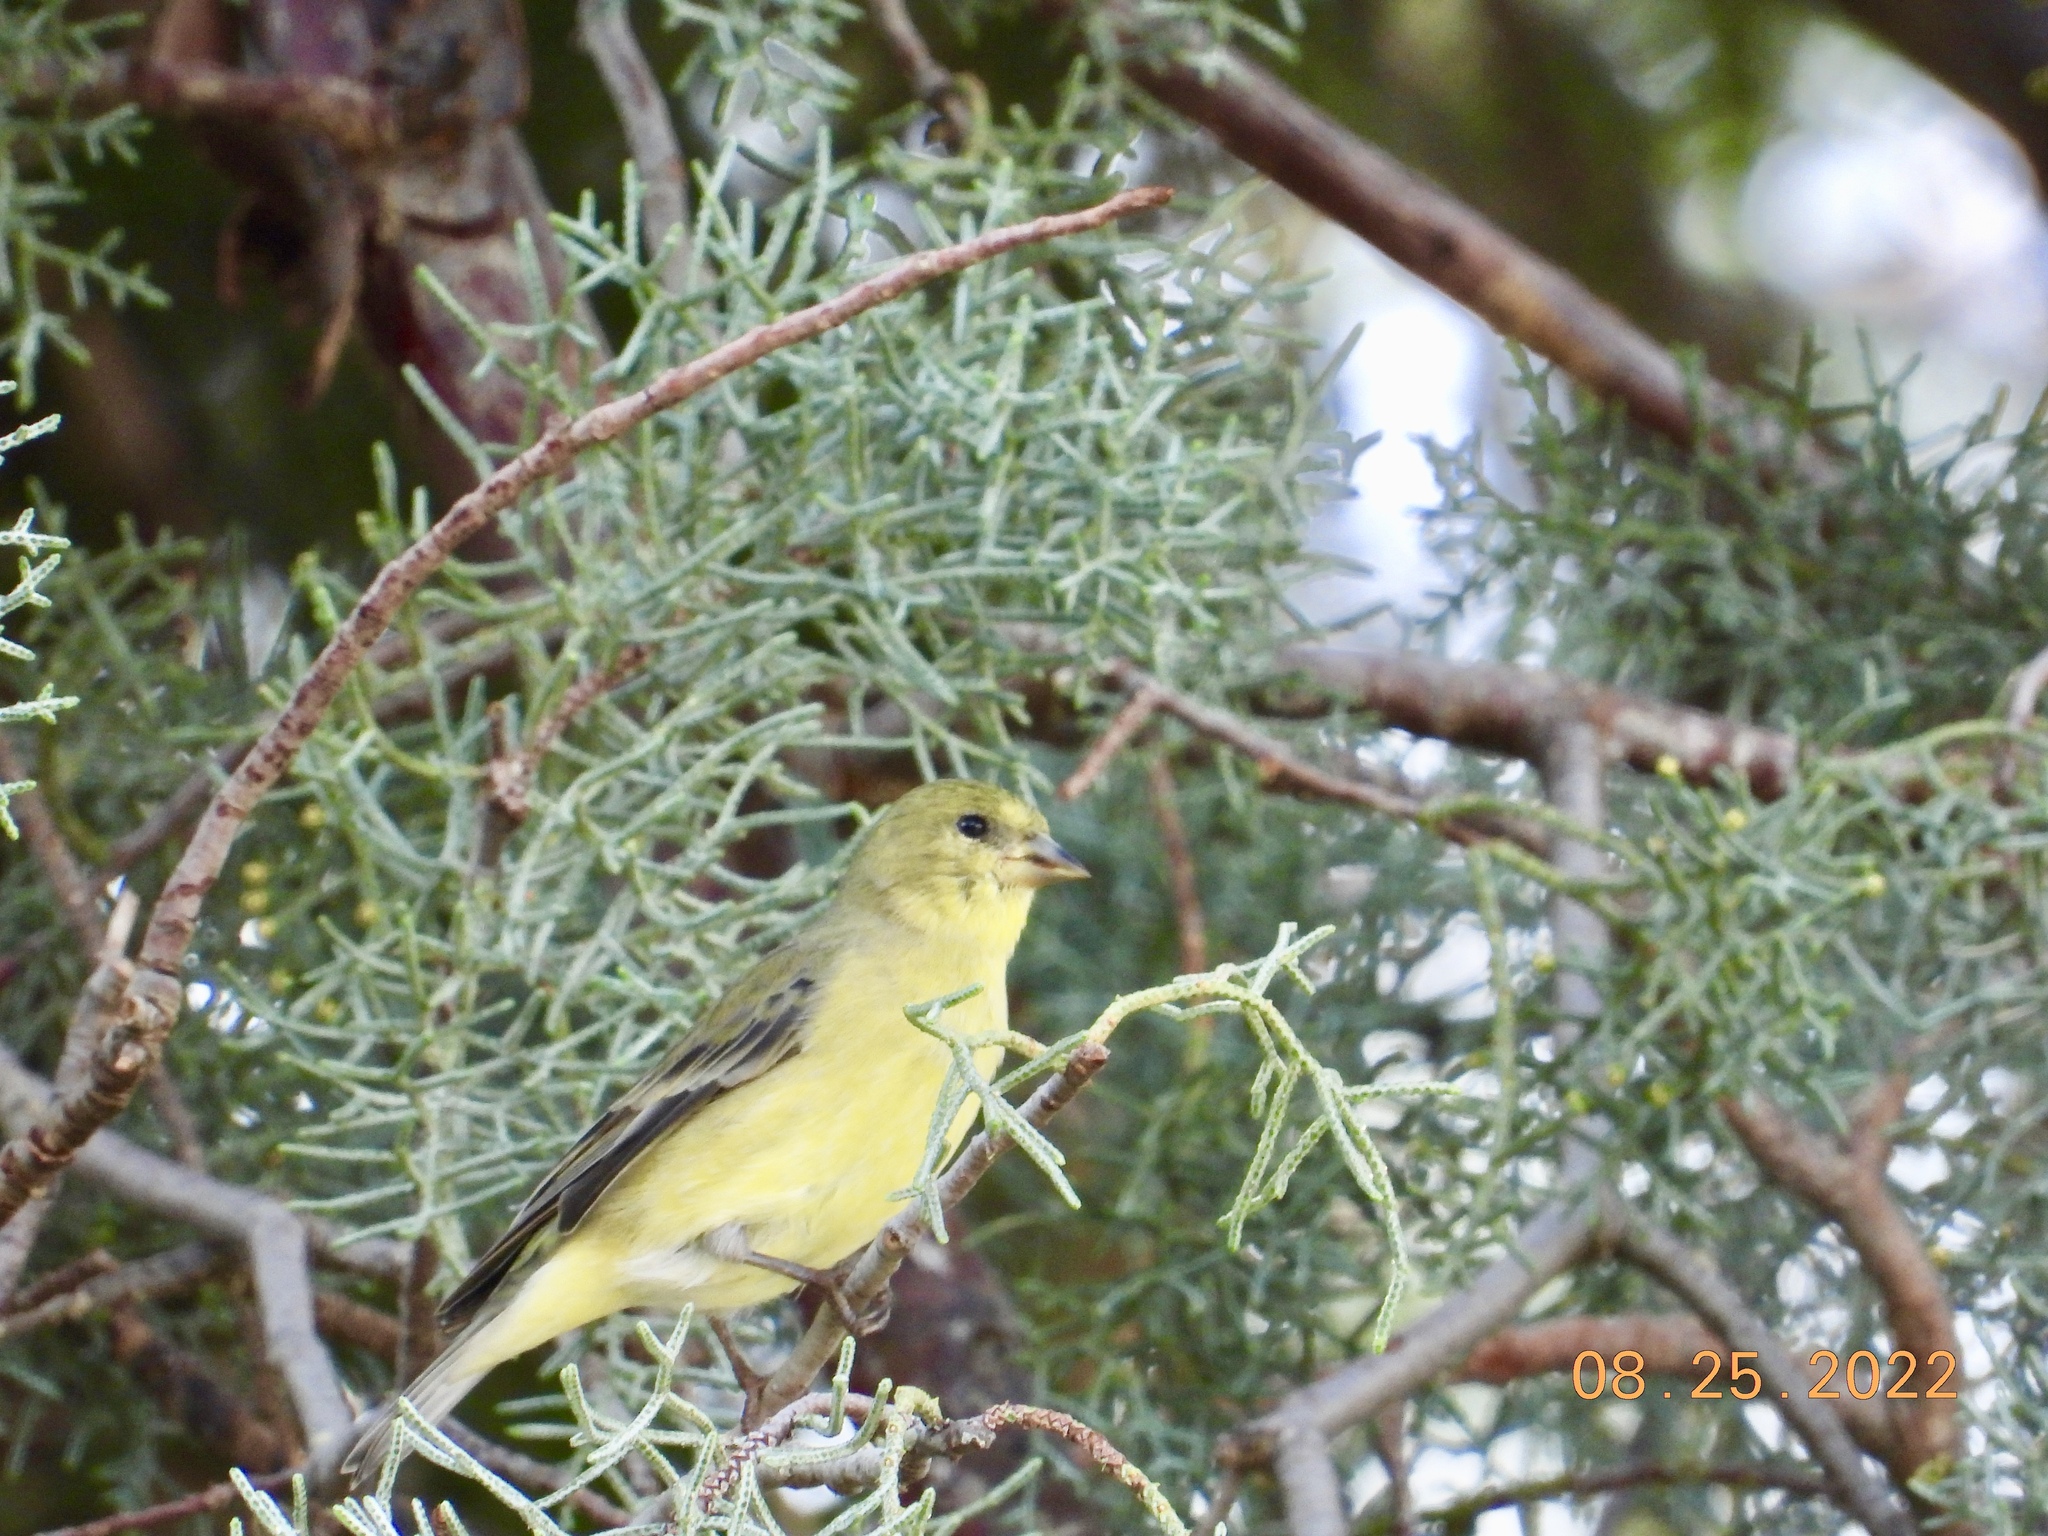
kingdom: Animalia
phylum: Chordata
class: Aves
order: Passeriformes
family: Fringillidae
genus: Spinus
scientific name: Spinus psaltria
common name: Lesser goldfinch
